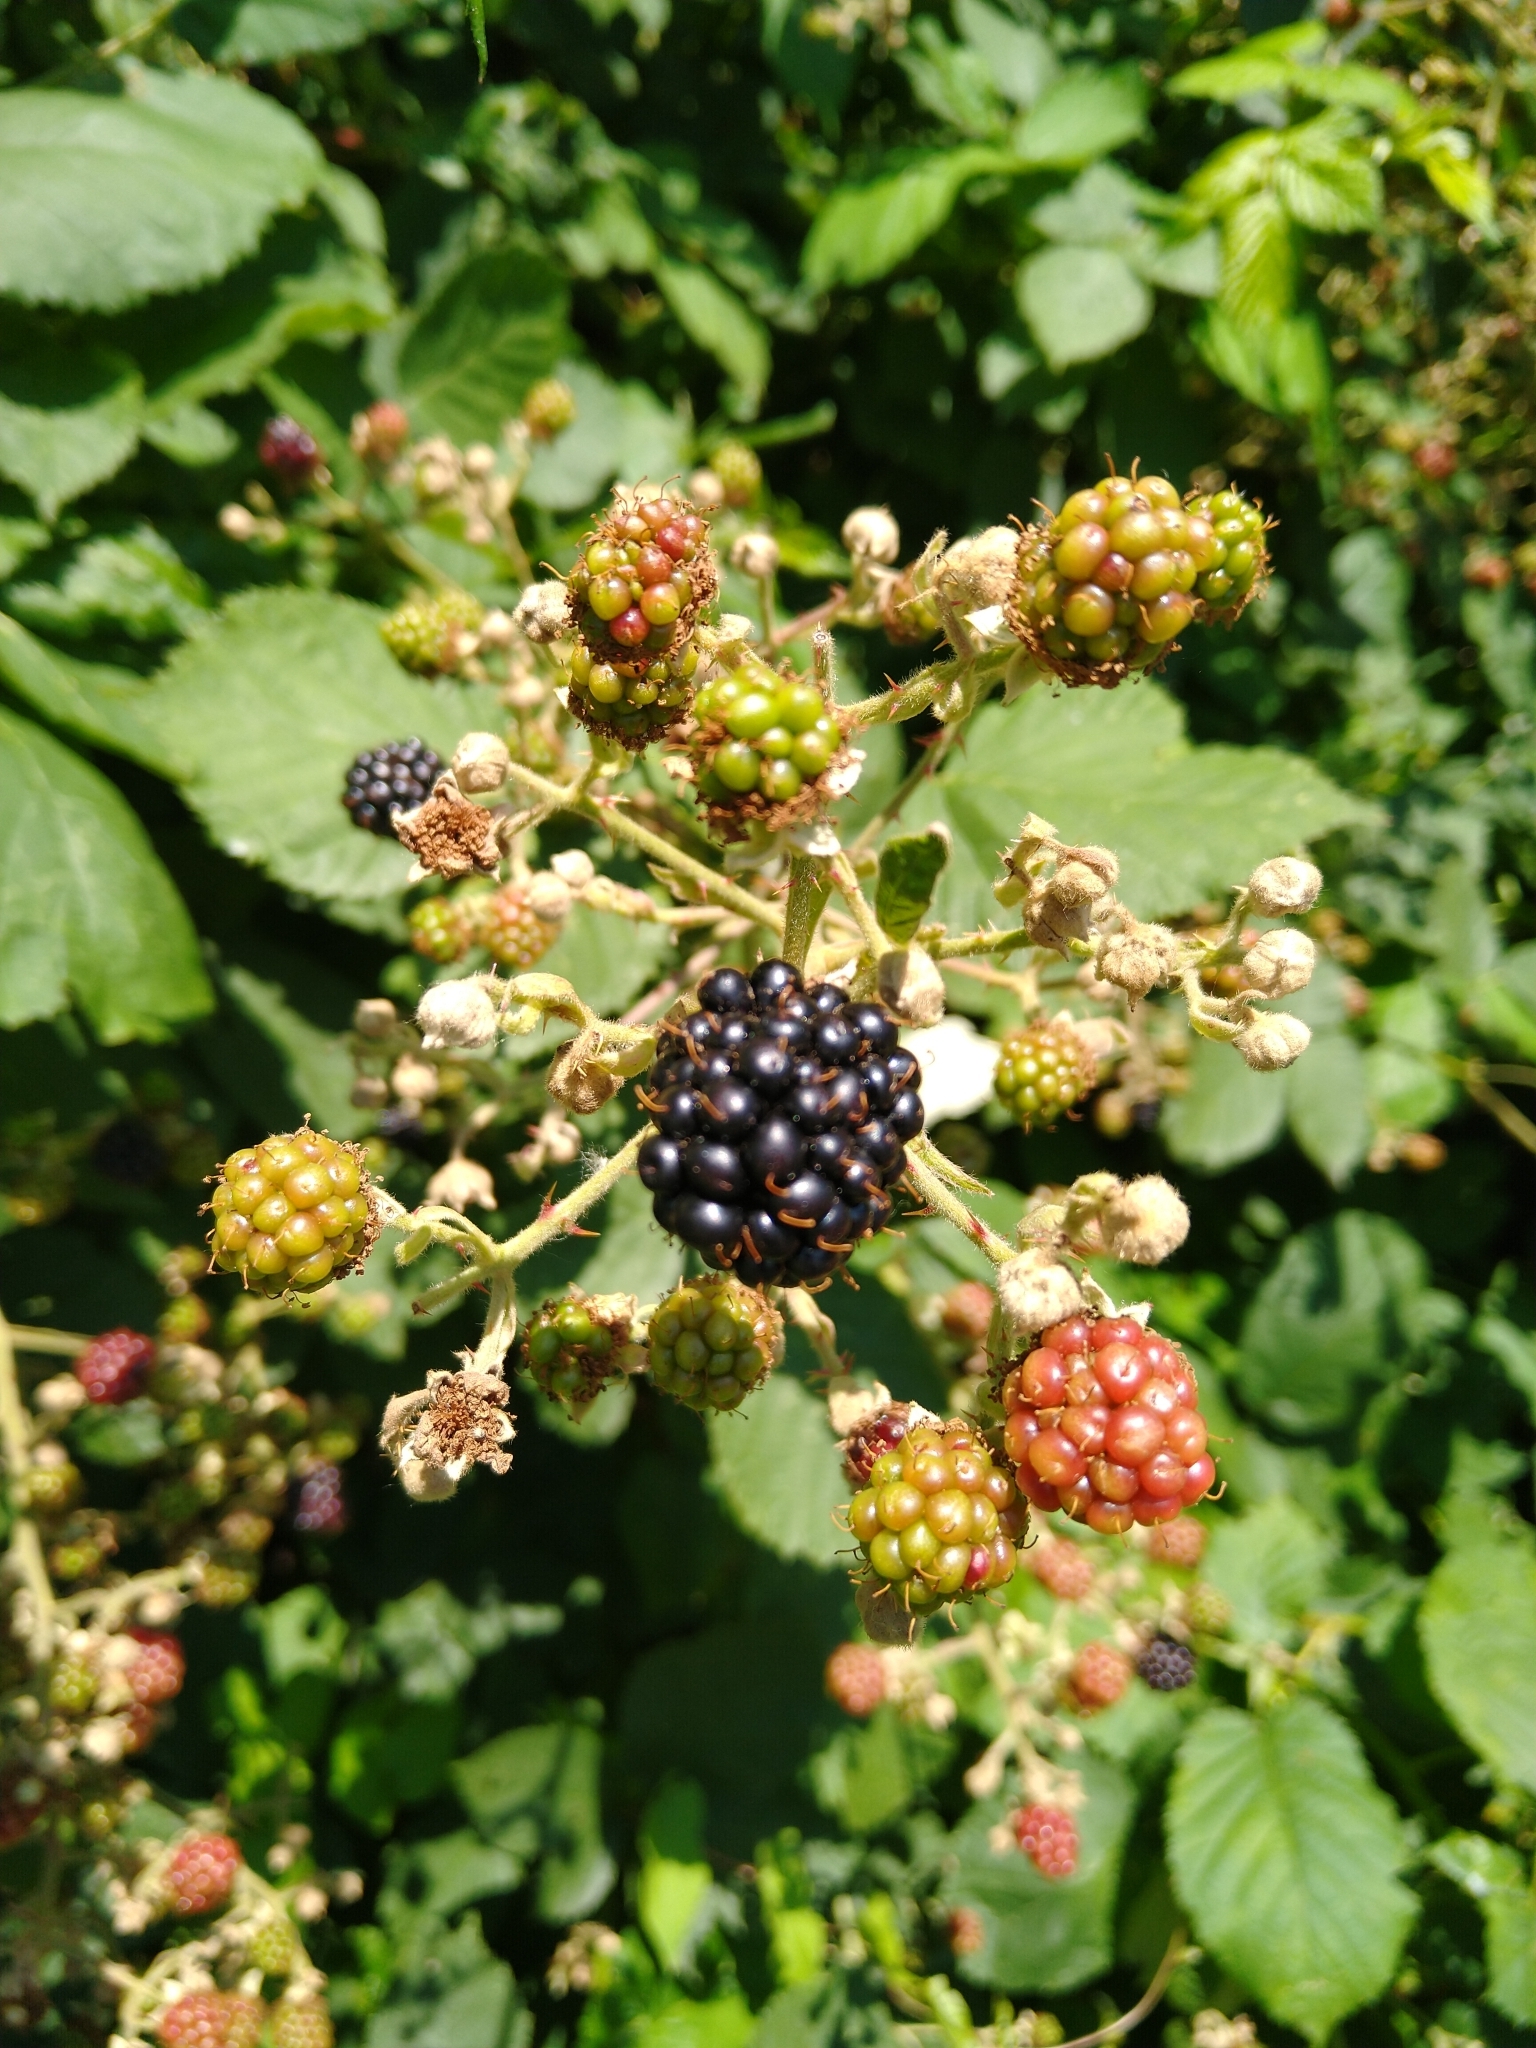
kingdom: Plantae
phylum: Tracheophyta
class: Magnoliopsida
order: Rosales
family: Rosaceae
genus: Rubus
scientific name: Rubus bifrons
